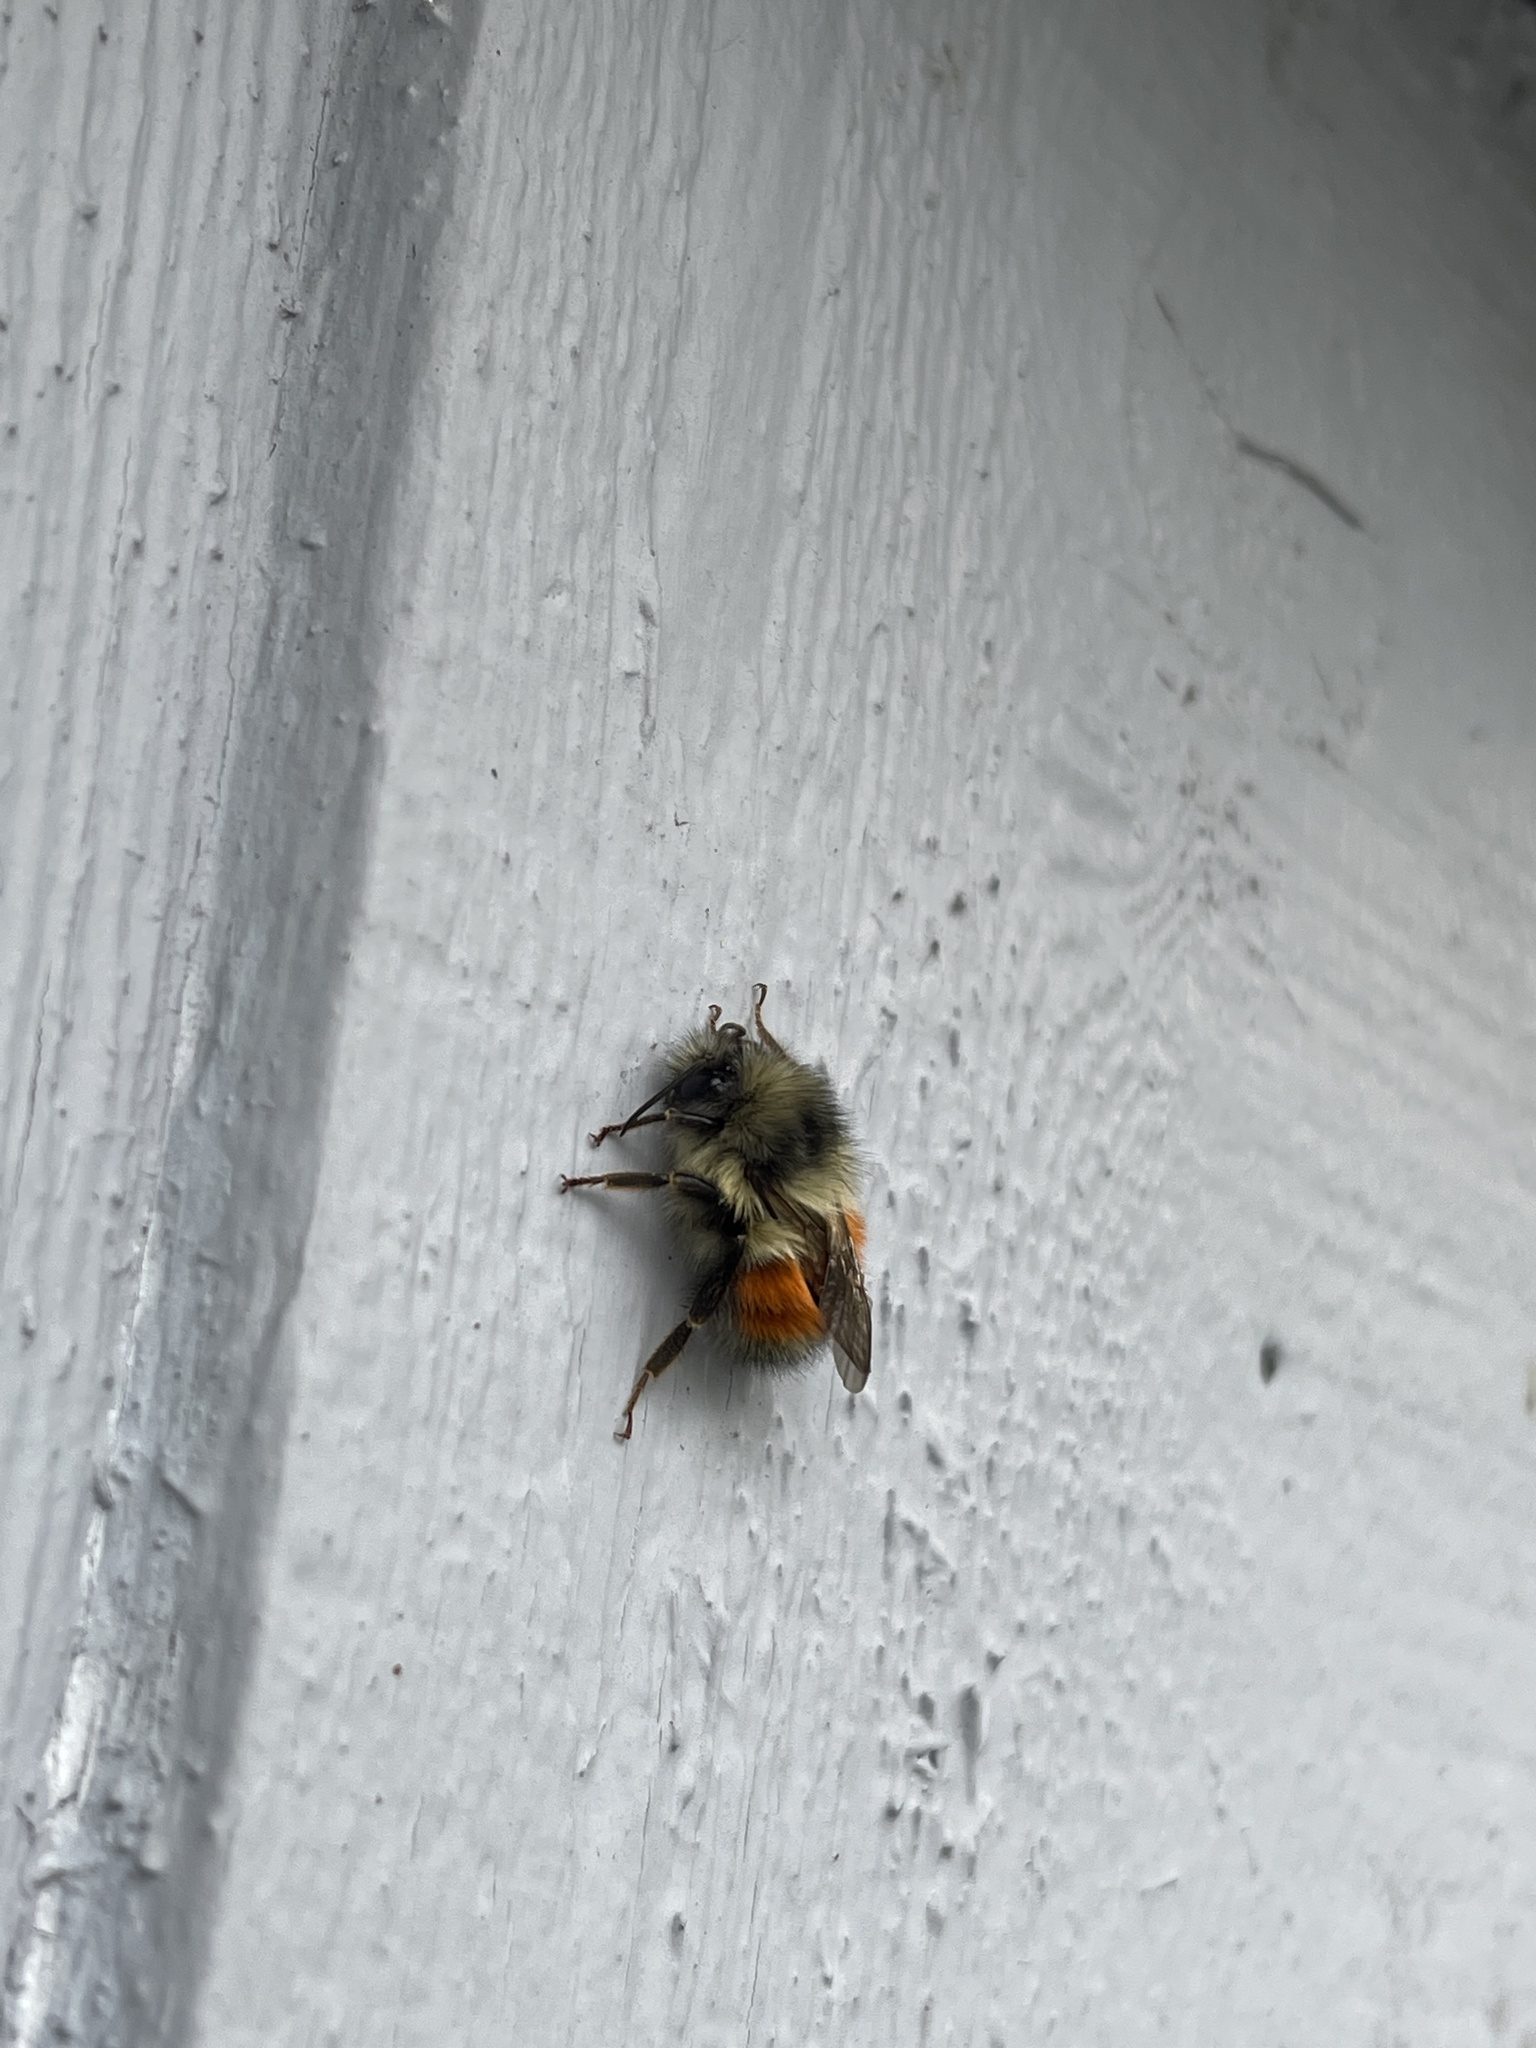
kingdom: Animalia
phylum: Arthropoda
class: Insecta
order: Hymenoptera
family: Apidae
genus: Bombus
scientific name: Bombus melanopygus
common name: Black tail bumble bee
